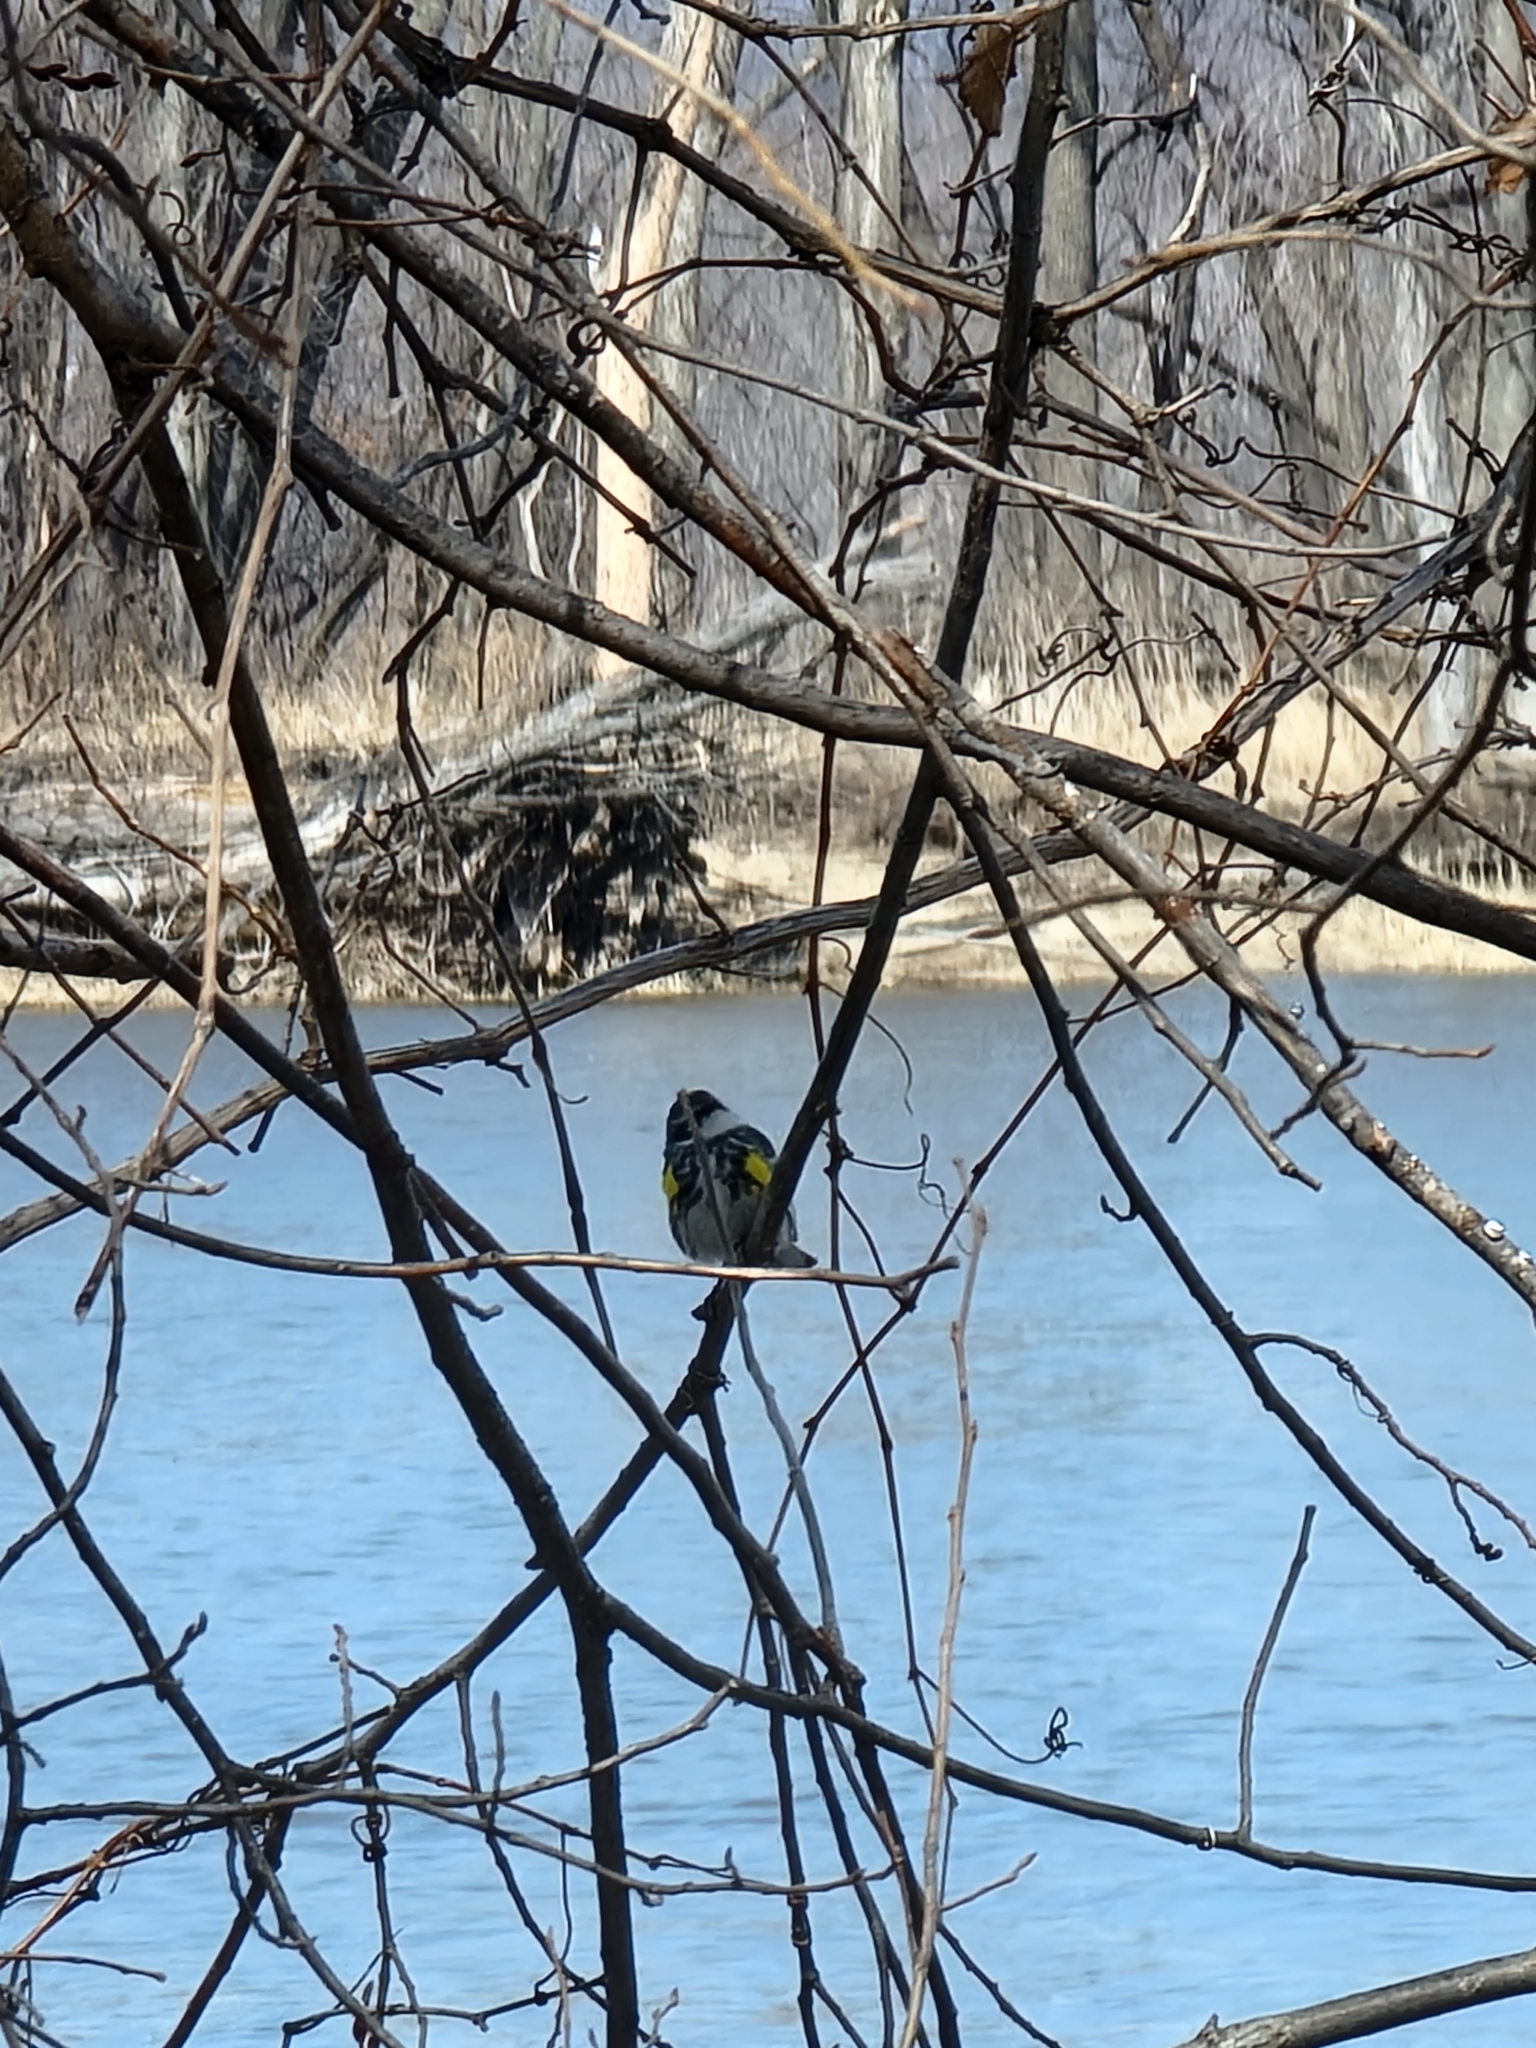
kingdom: Animalia
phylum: Chordata
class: Aves
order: Passeriformes
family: Parulidae
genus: Setophaga
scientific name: Setophaga coronata
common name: Myrtle warbler
